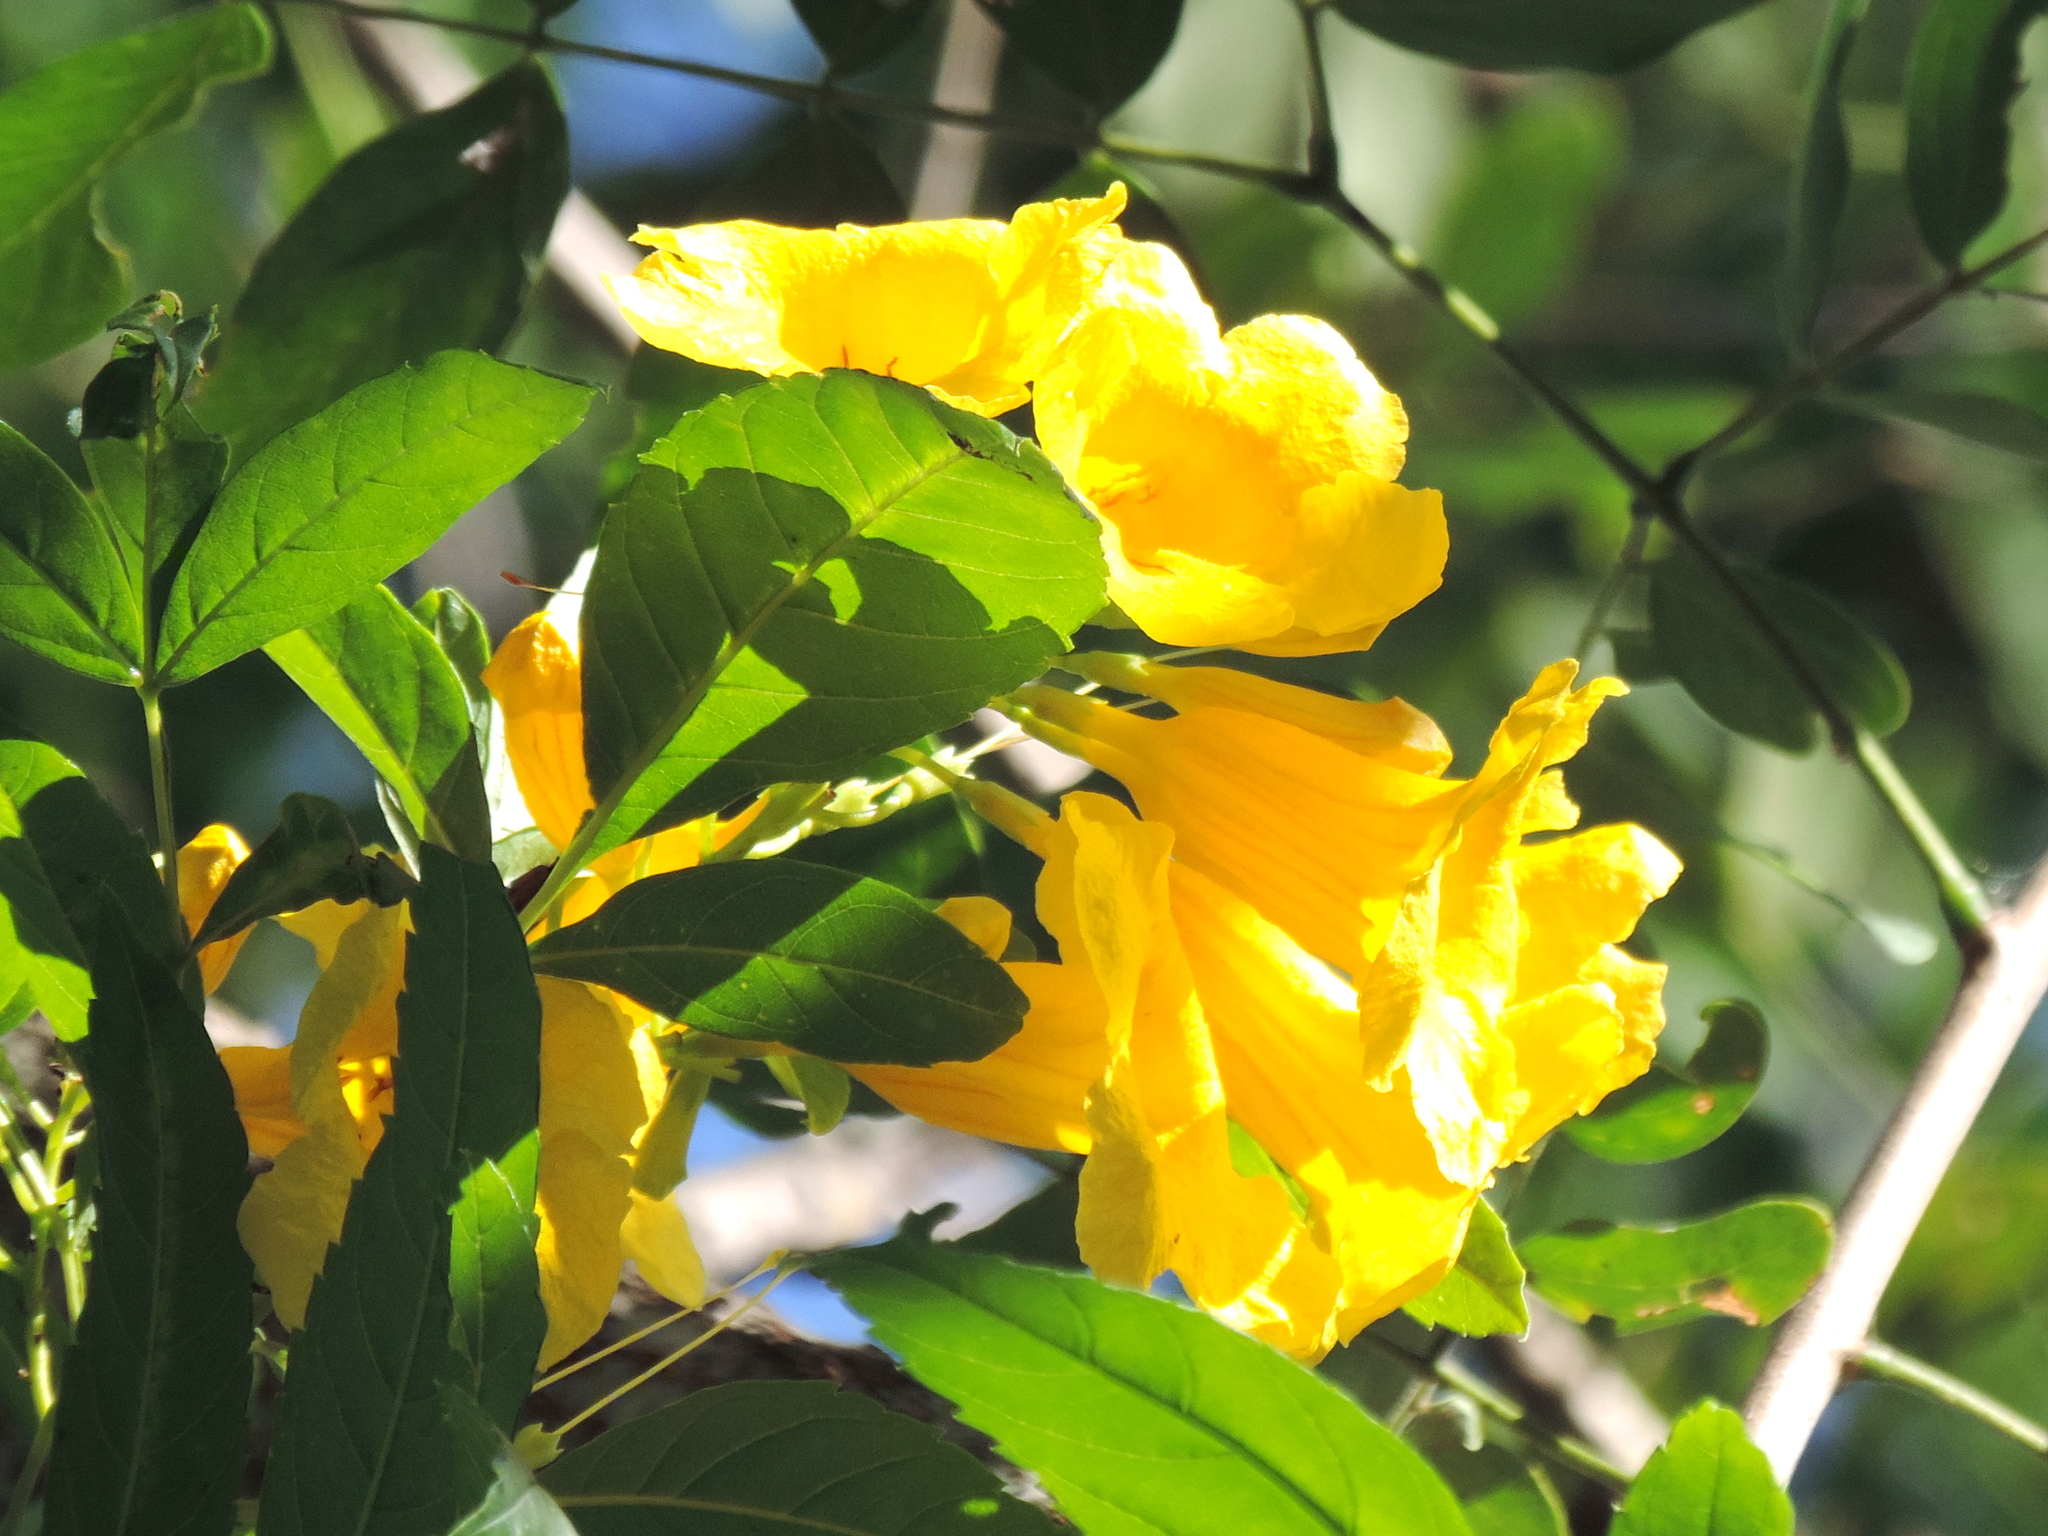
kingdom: Plantae
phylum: Tracheophyta
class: Magnoliopsida
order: Lamiales
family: Bignoniaceae
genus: Tecoma
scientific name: Tecoma stans
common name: Yellow trumpetbush
